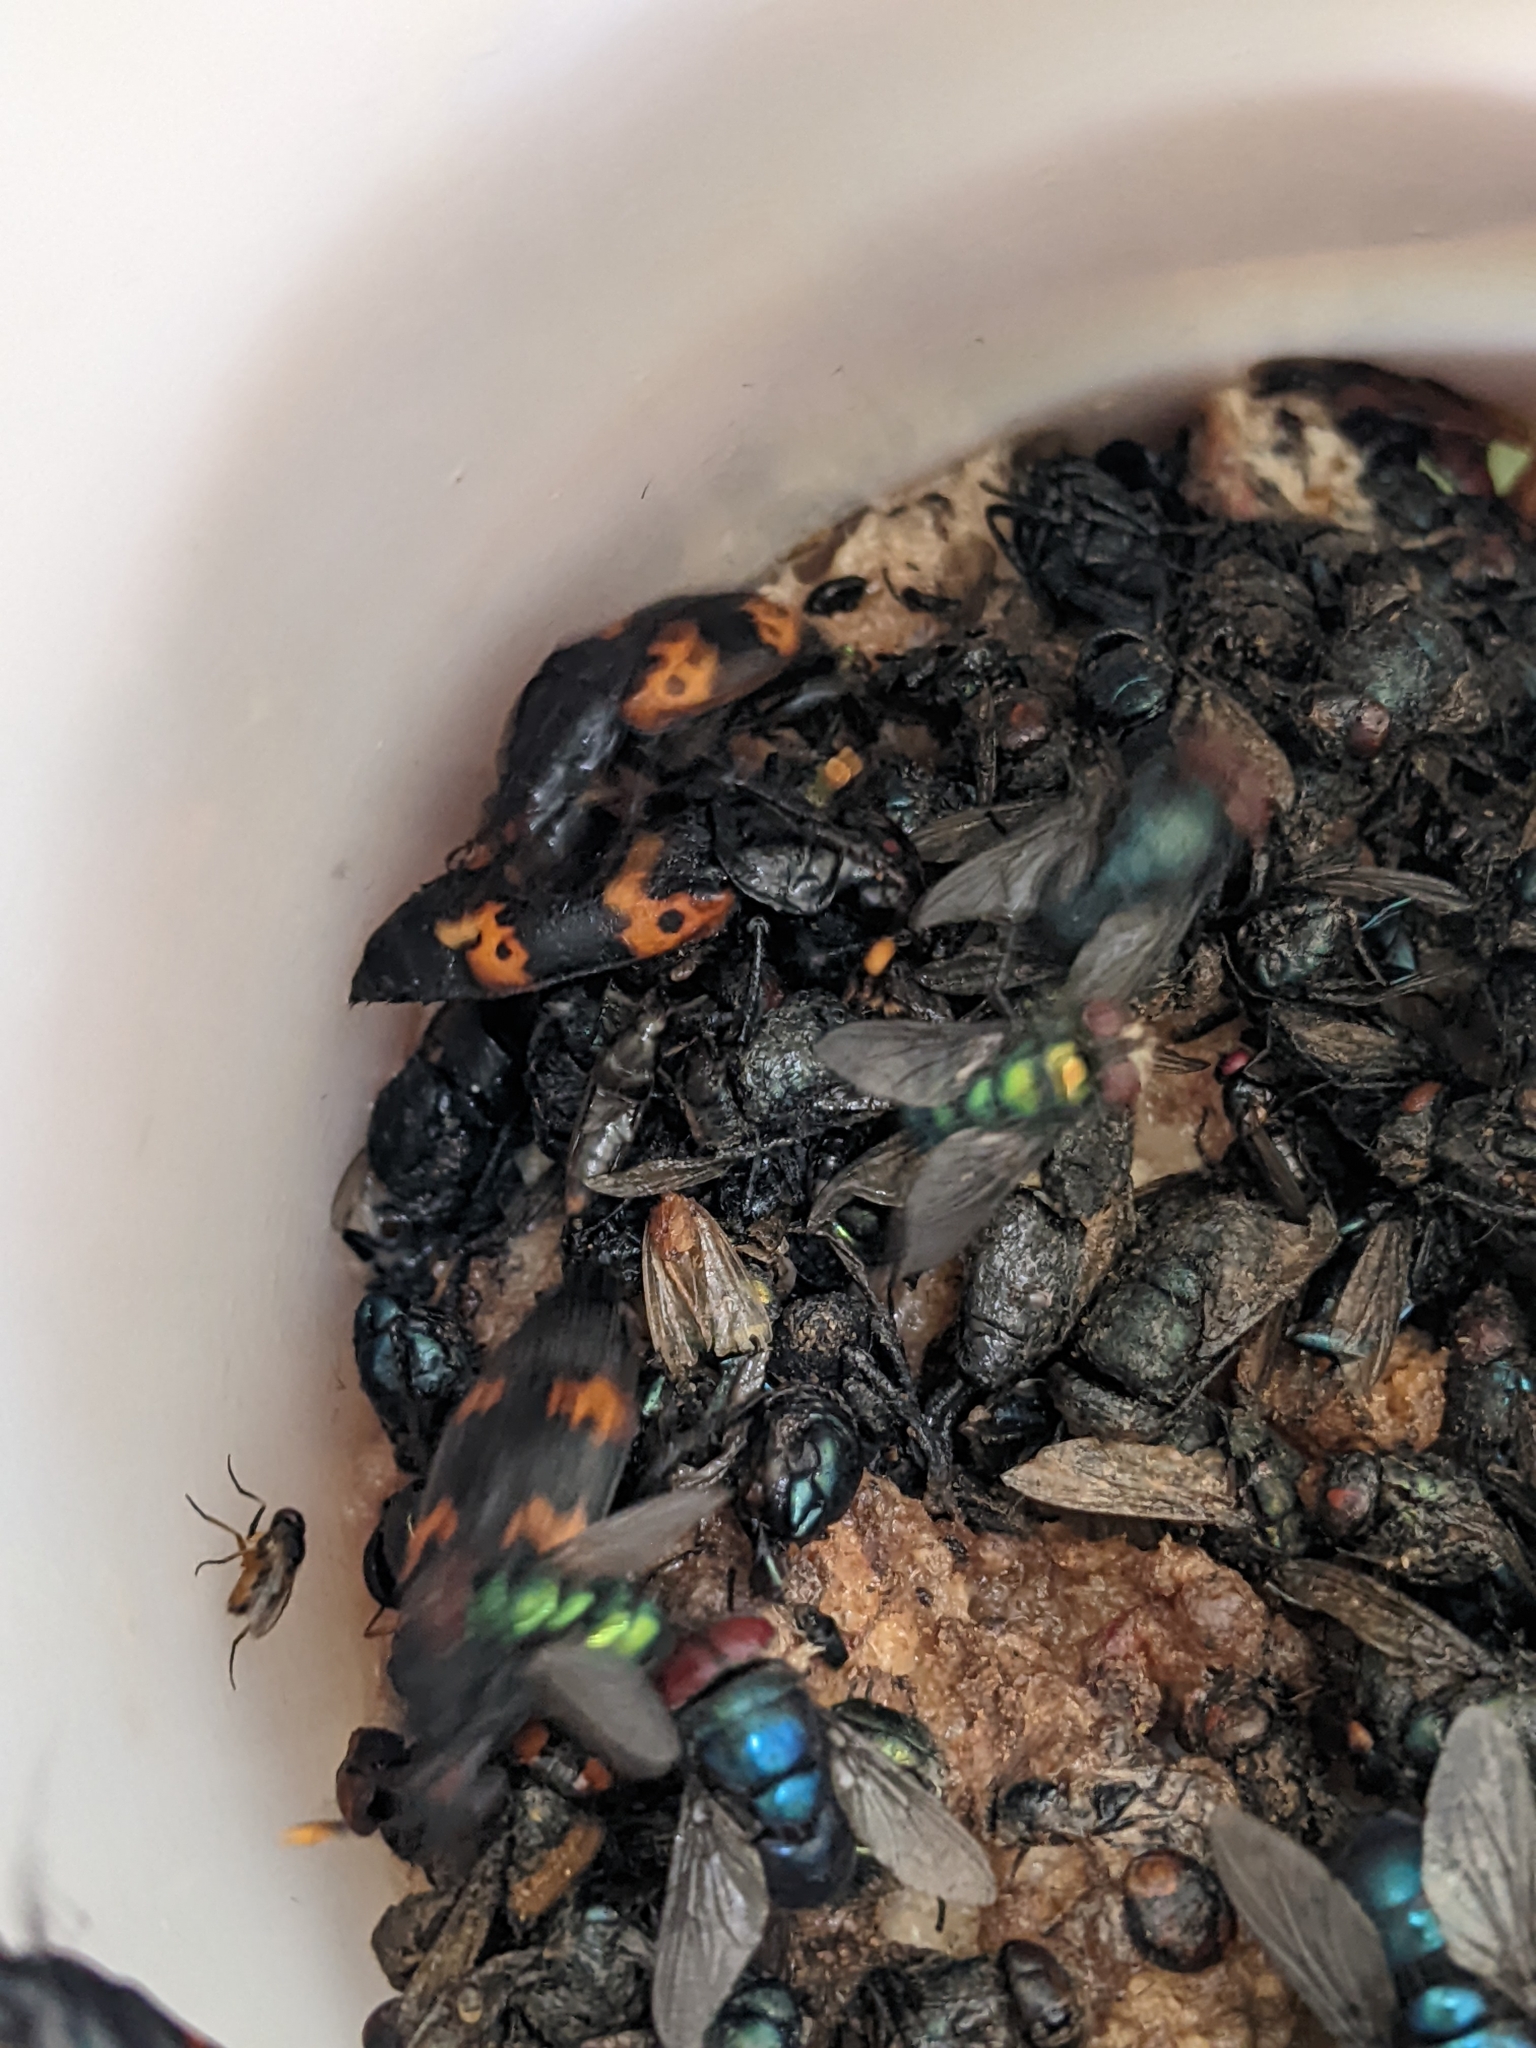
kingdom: Animalia
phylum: Arthropoda
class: Insecta
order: Coleoptera
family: Staphylinidae
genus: Nicrophorus
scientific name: Nicrophorus nepalensis
